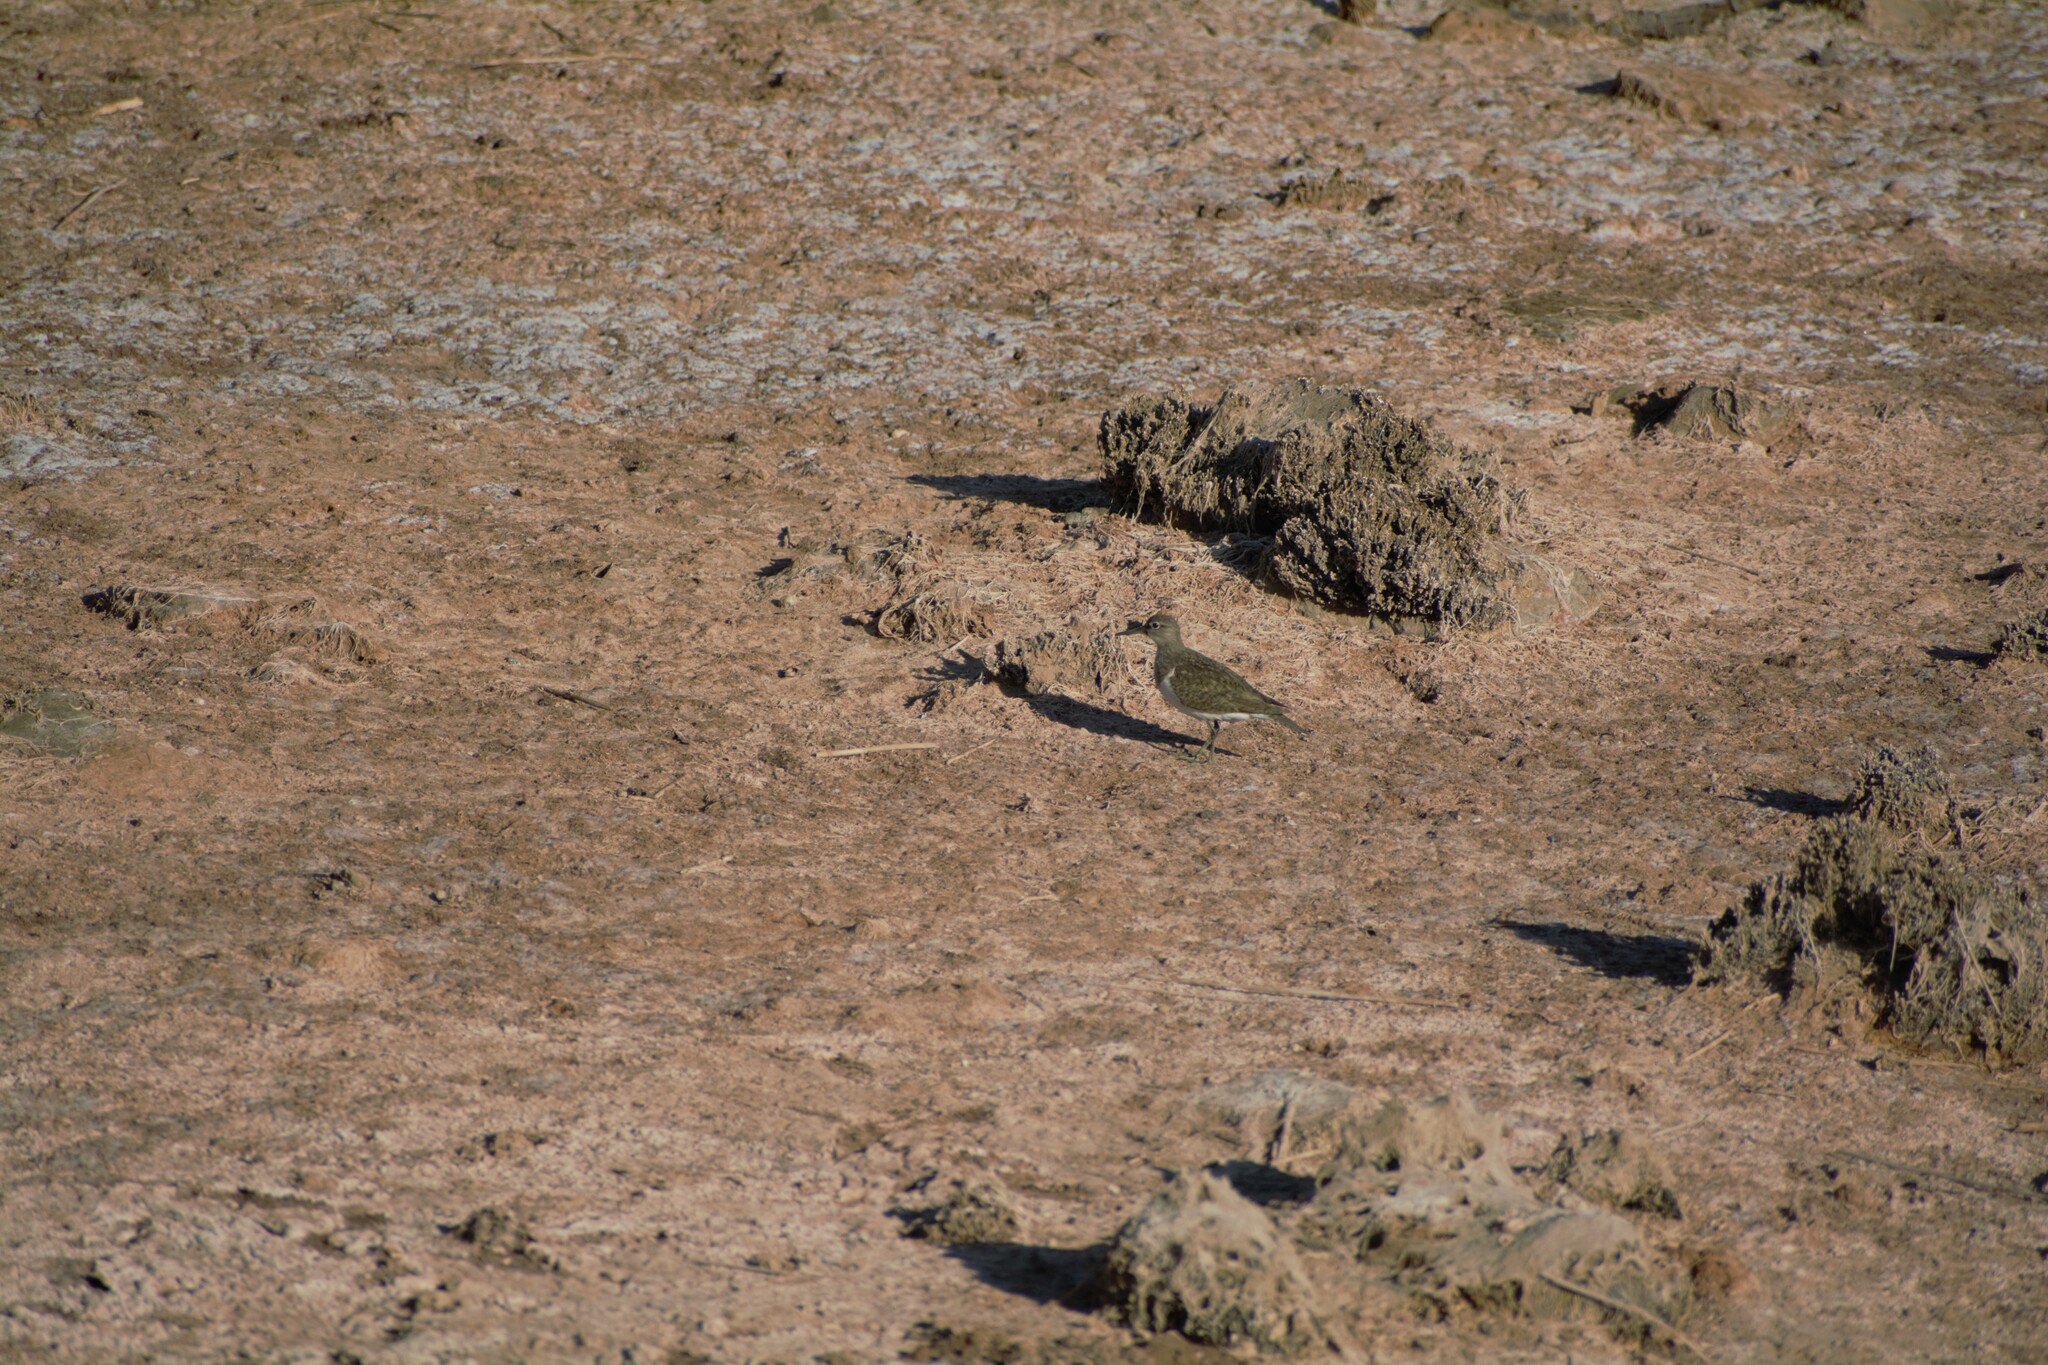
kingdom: Animalia
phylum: Chordata
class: Aves
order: Charadriiformes
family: Scolopacidae
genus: Actitis
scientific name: Actitis hypoleucos
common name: Common sandpiper
